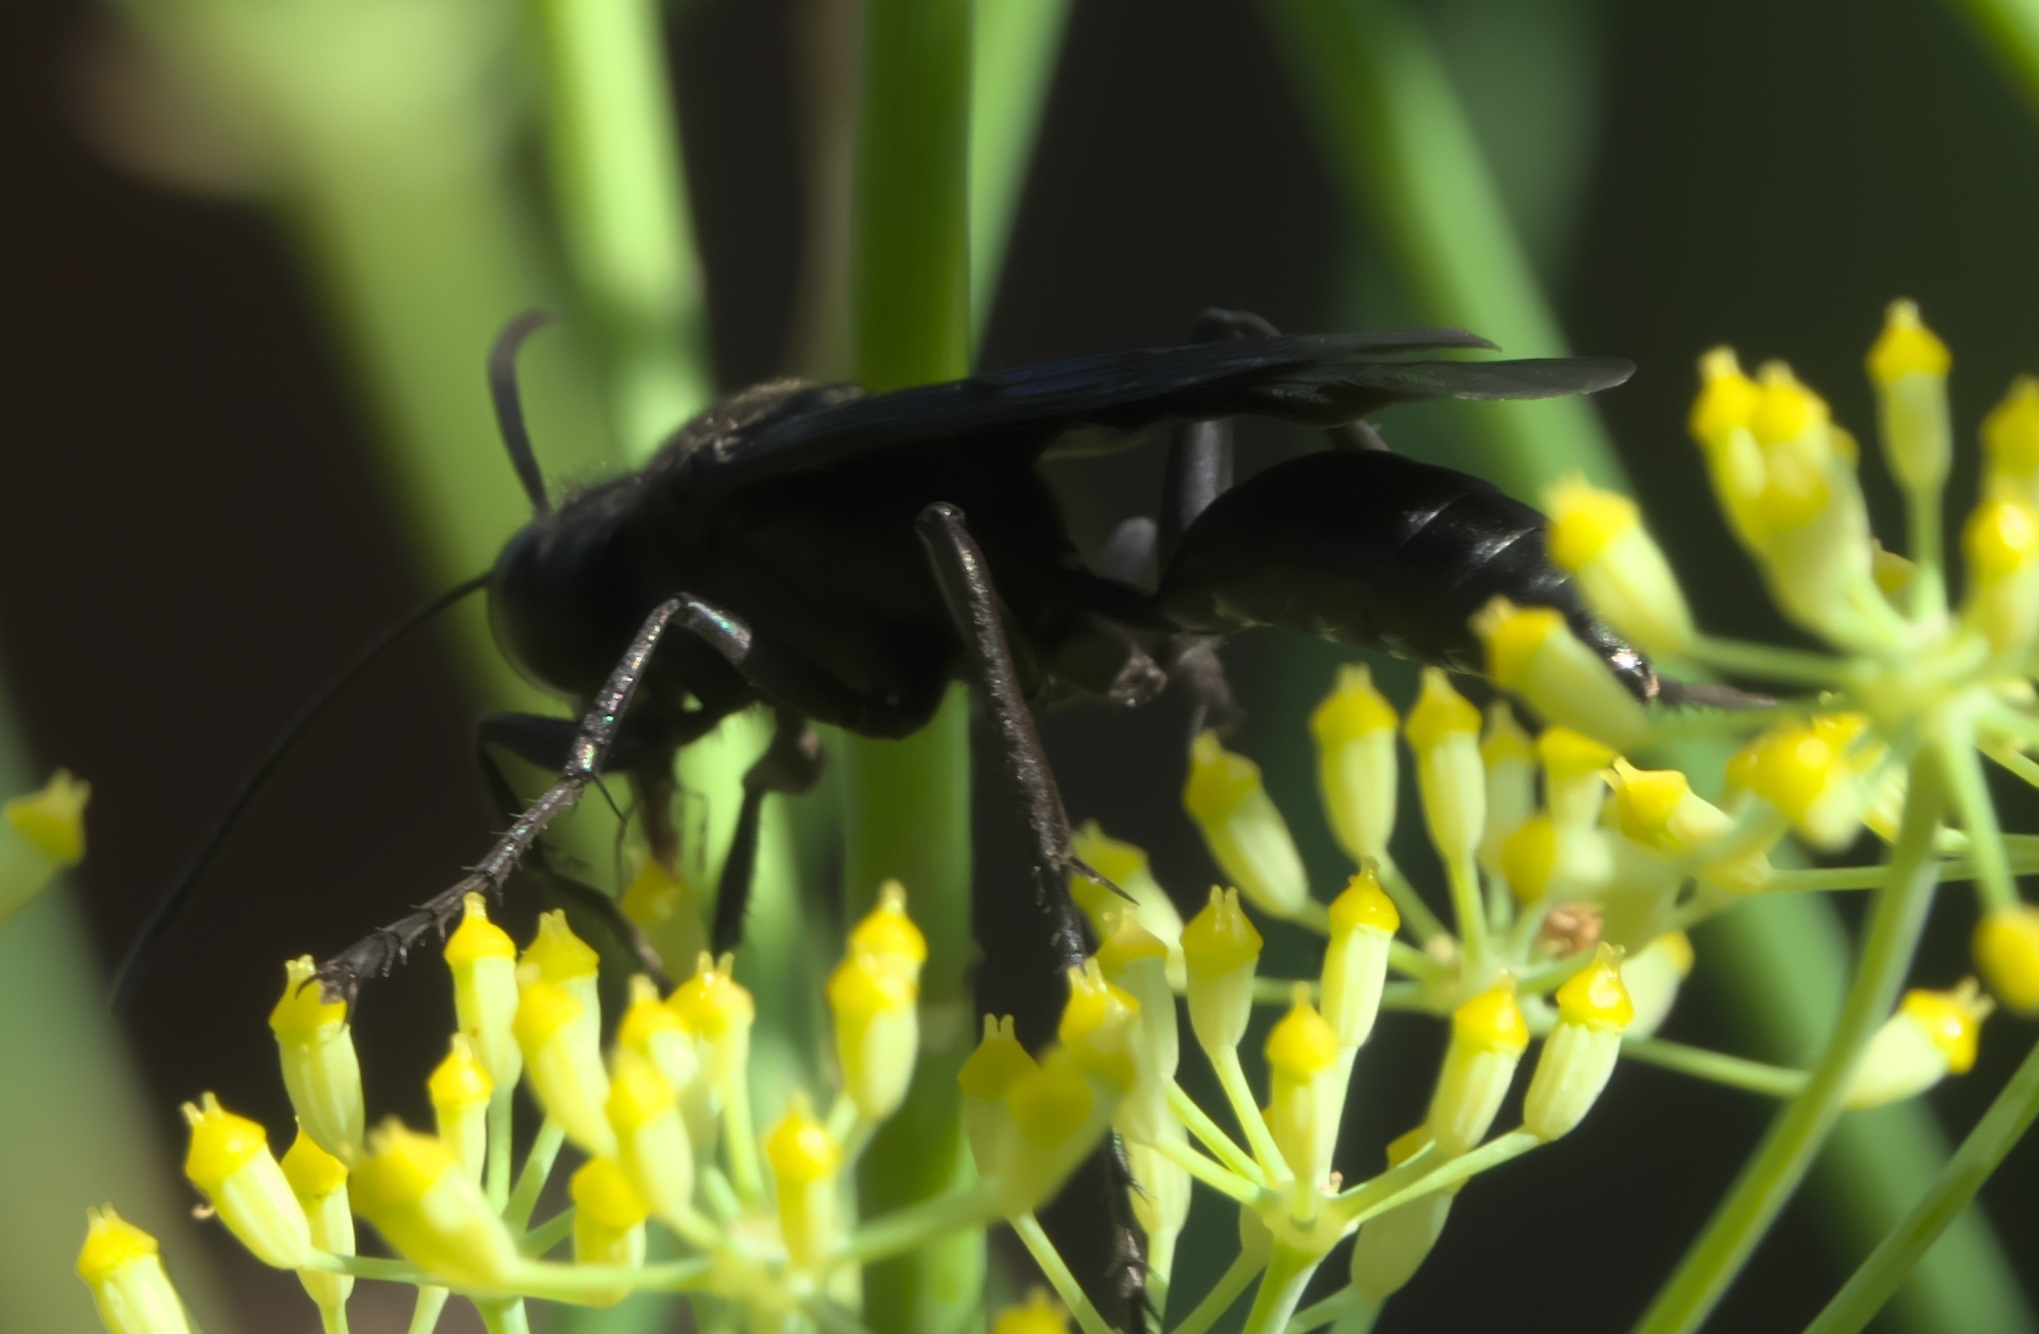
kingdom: Animalia
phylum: Arthropoda
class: Insecta
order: Hymenoptera
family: Sphecidae
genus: Sphex
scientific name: Sphex pensylvanicus
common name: Great black digger wasp
